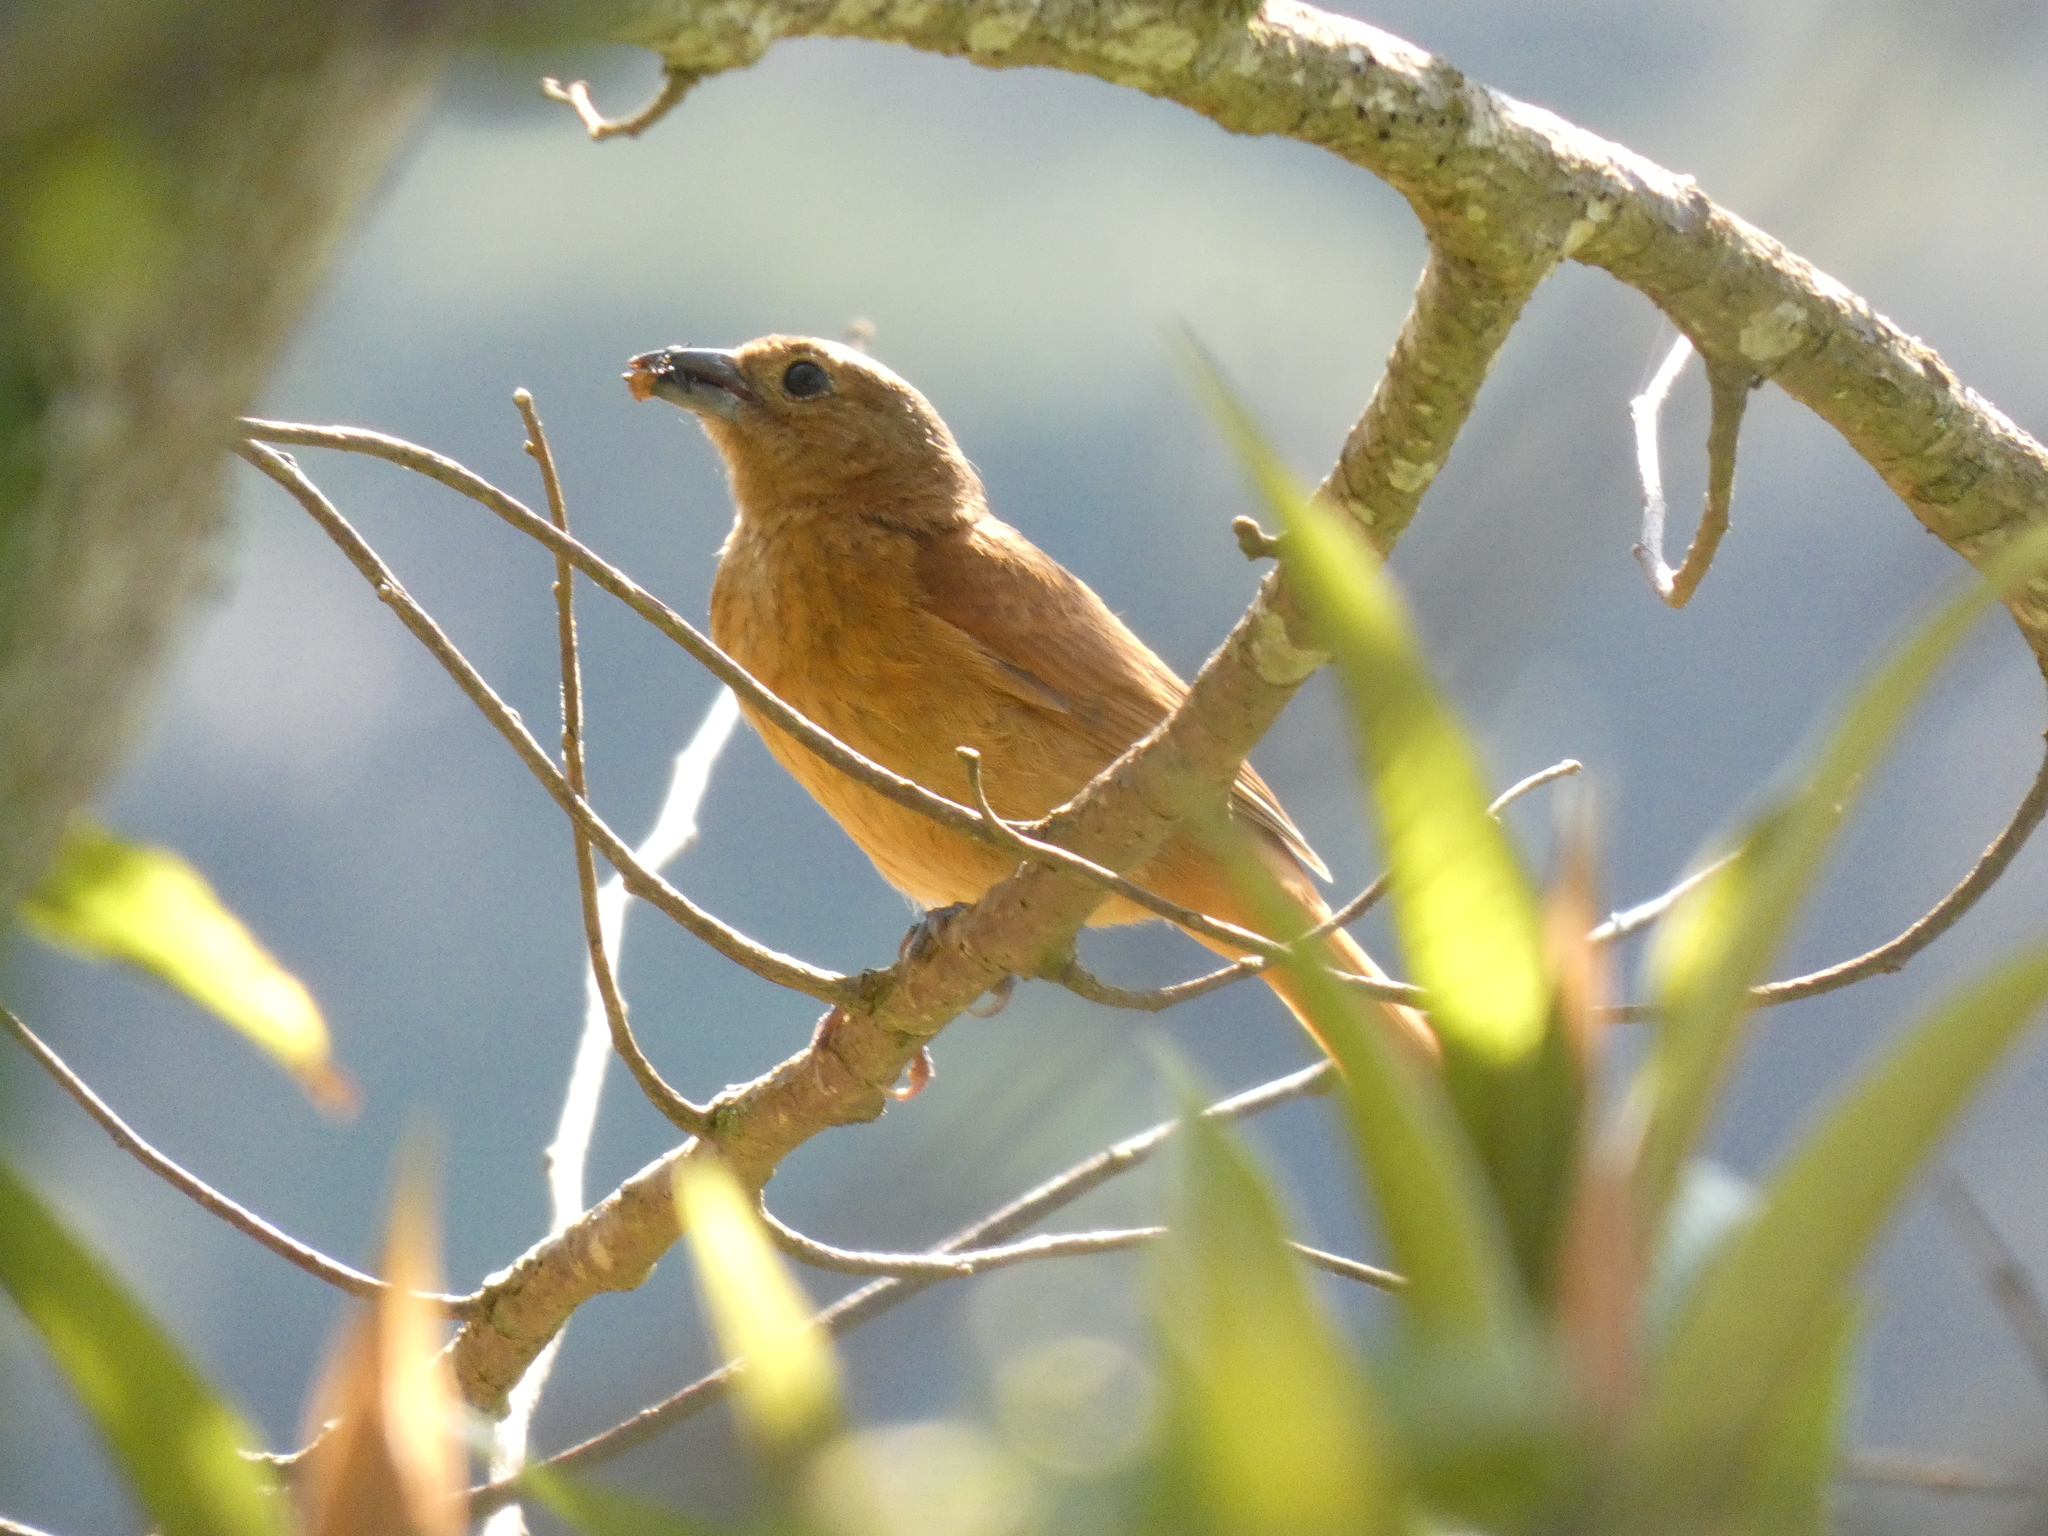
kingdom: Animalia
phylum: Chordata
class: Aves
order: Passeriformes
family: Thraupidae
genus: Tachyphonus
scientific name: Tachyphonus coronatus
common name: Ruby-crowned tanager
